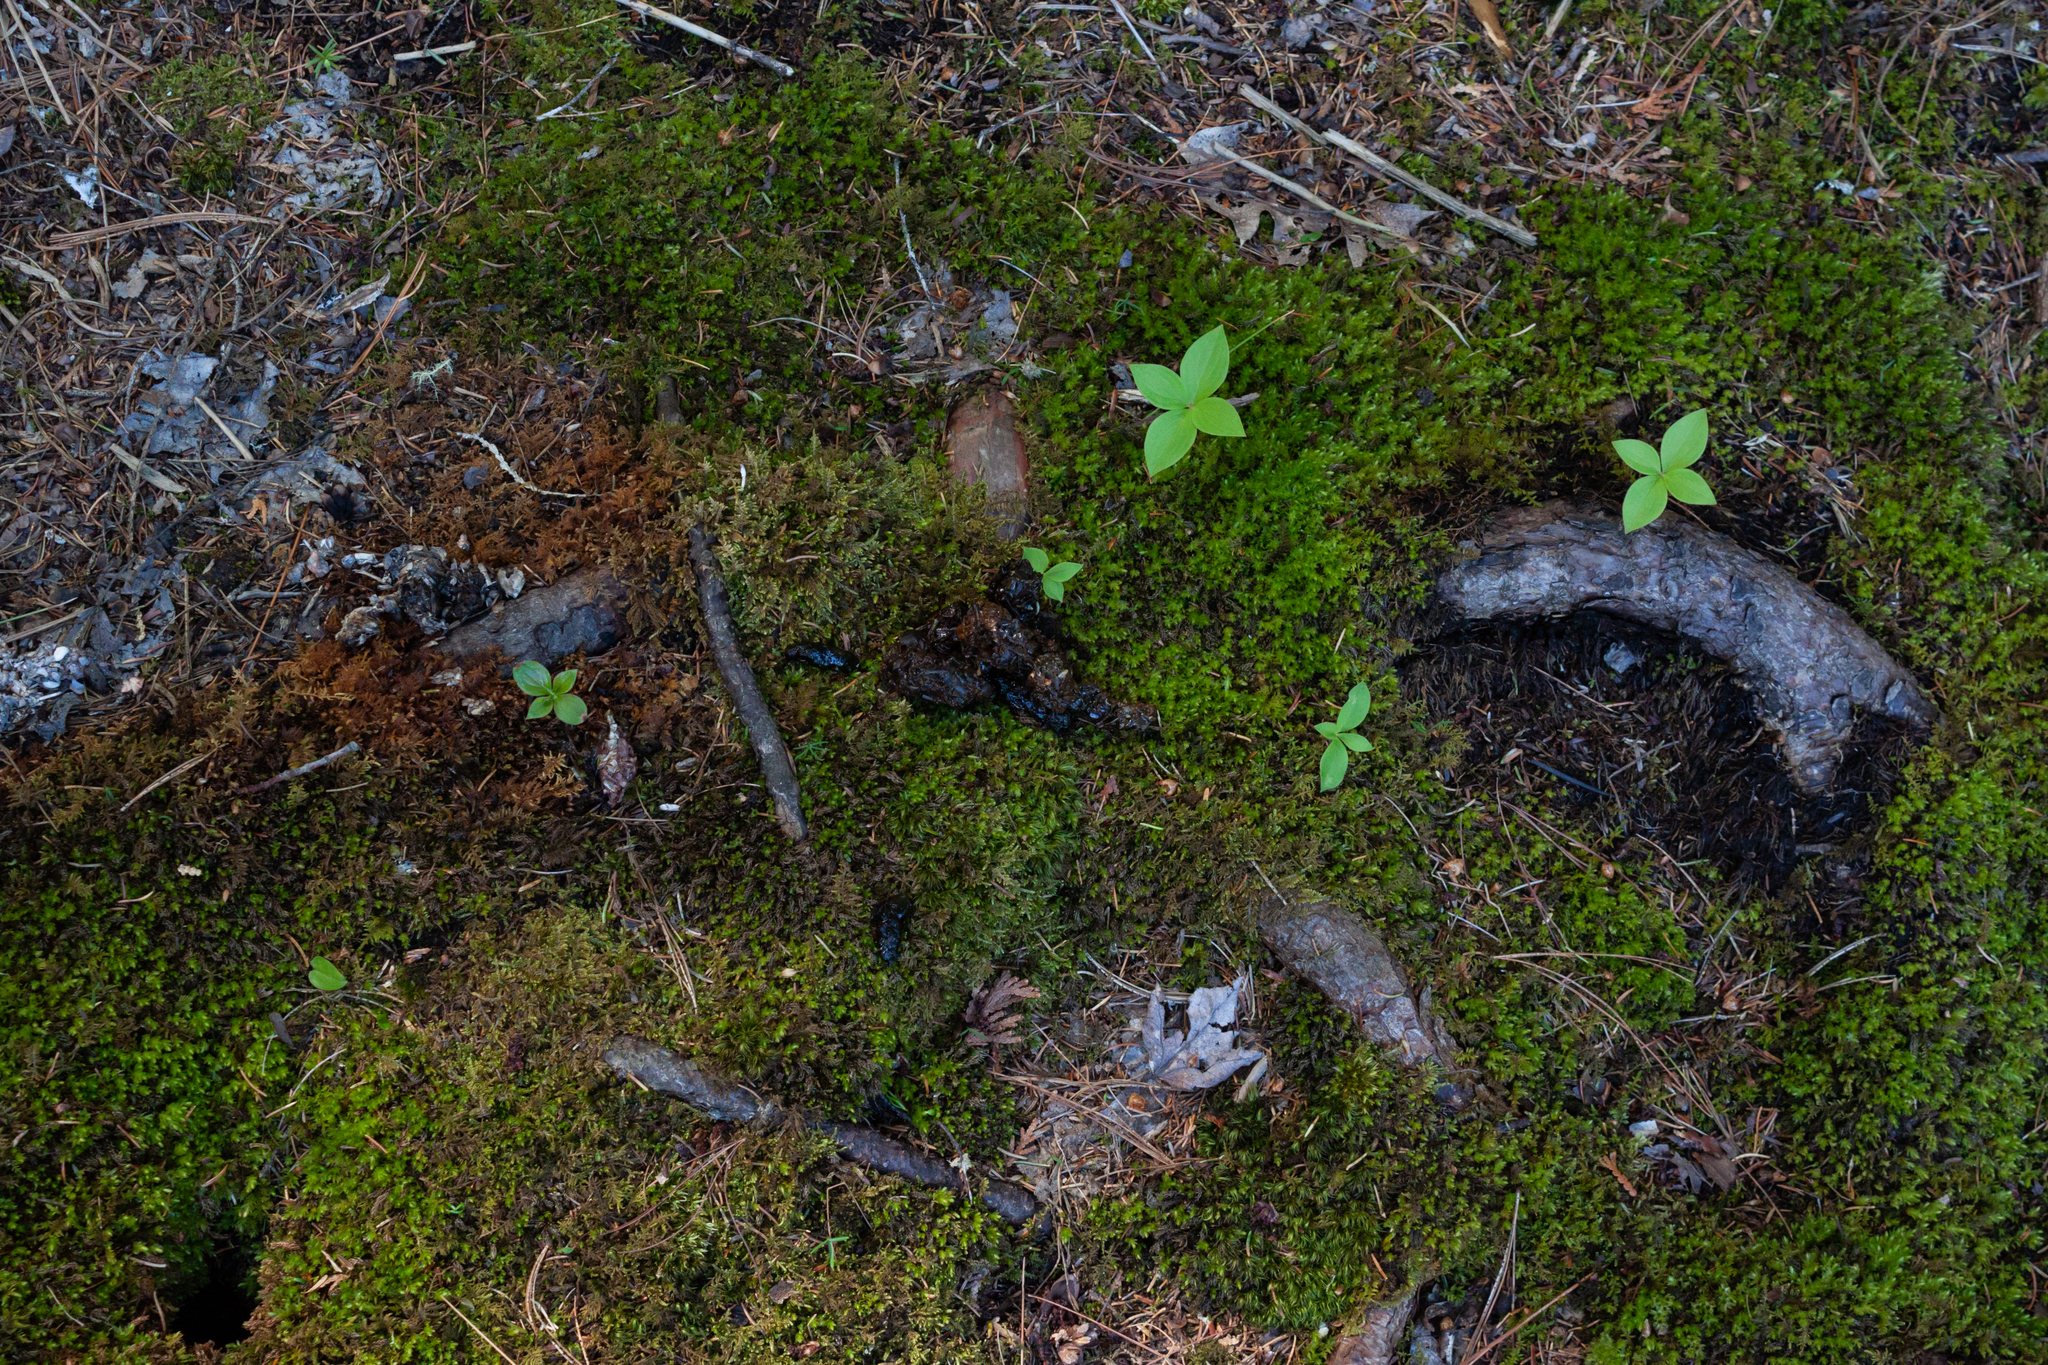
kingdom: Animalia
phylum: Chordata
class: Mammalia
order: Carnivora
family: Mustelidae
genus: Lontra
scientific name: Lontra canadensis
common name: North american river otter
